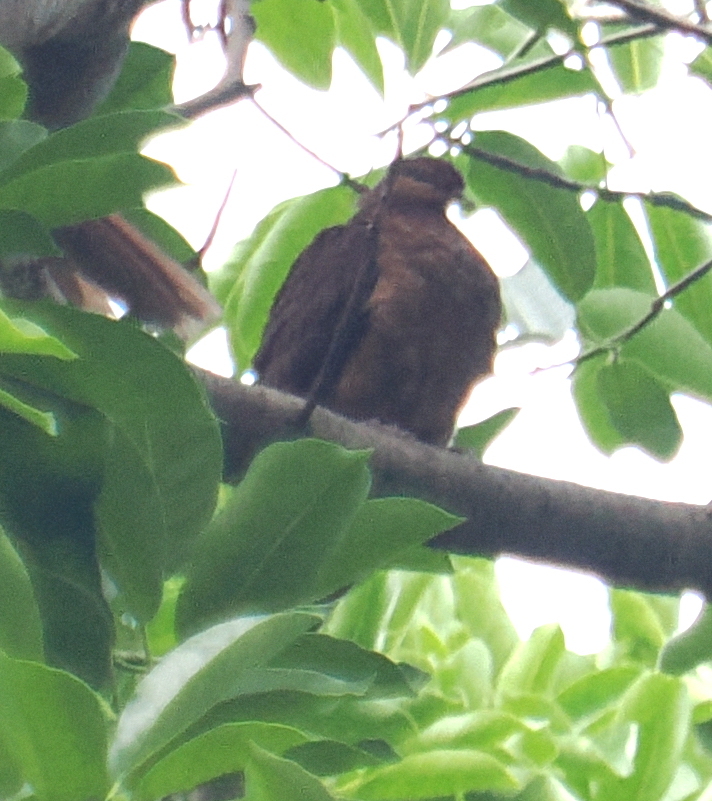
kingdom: Animalia
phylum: Chordata
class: Aves
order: Columbiformes
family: Columbidae
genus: Macropygia
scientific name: Macropygia magna
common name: Timor cuckoo-dove
